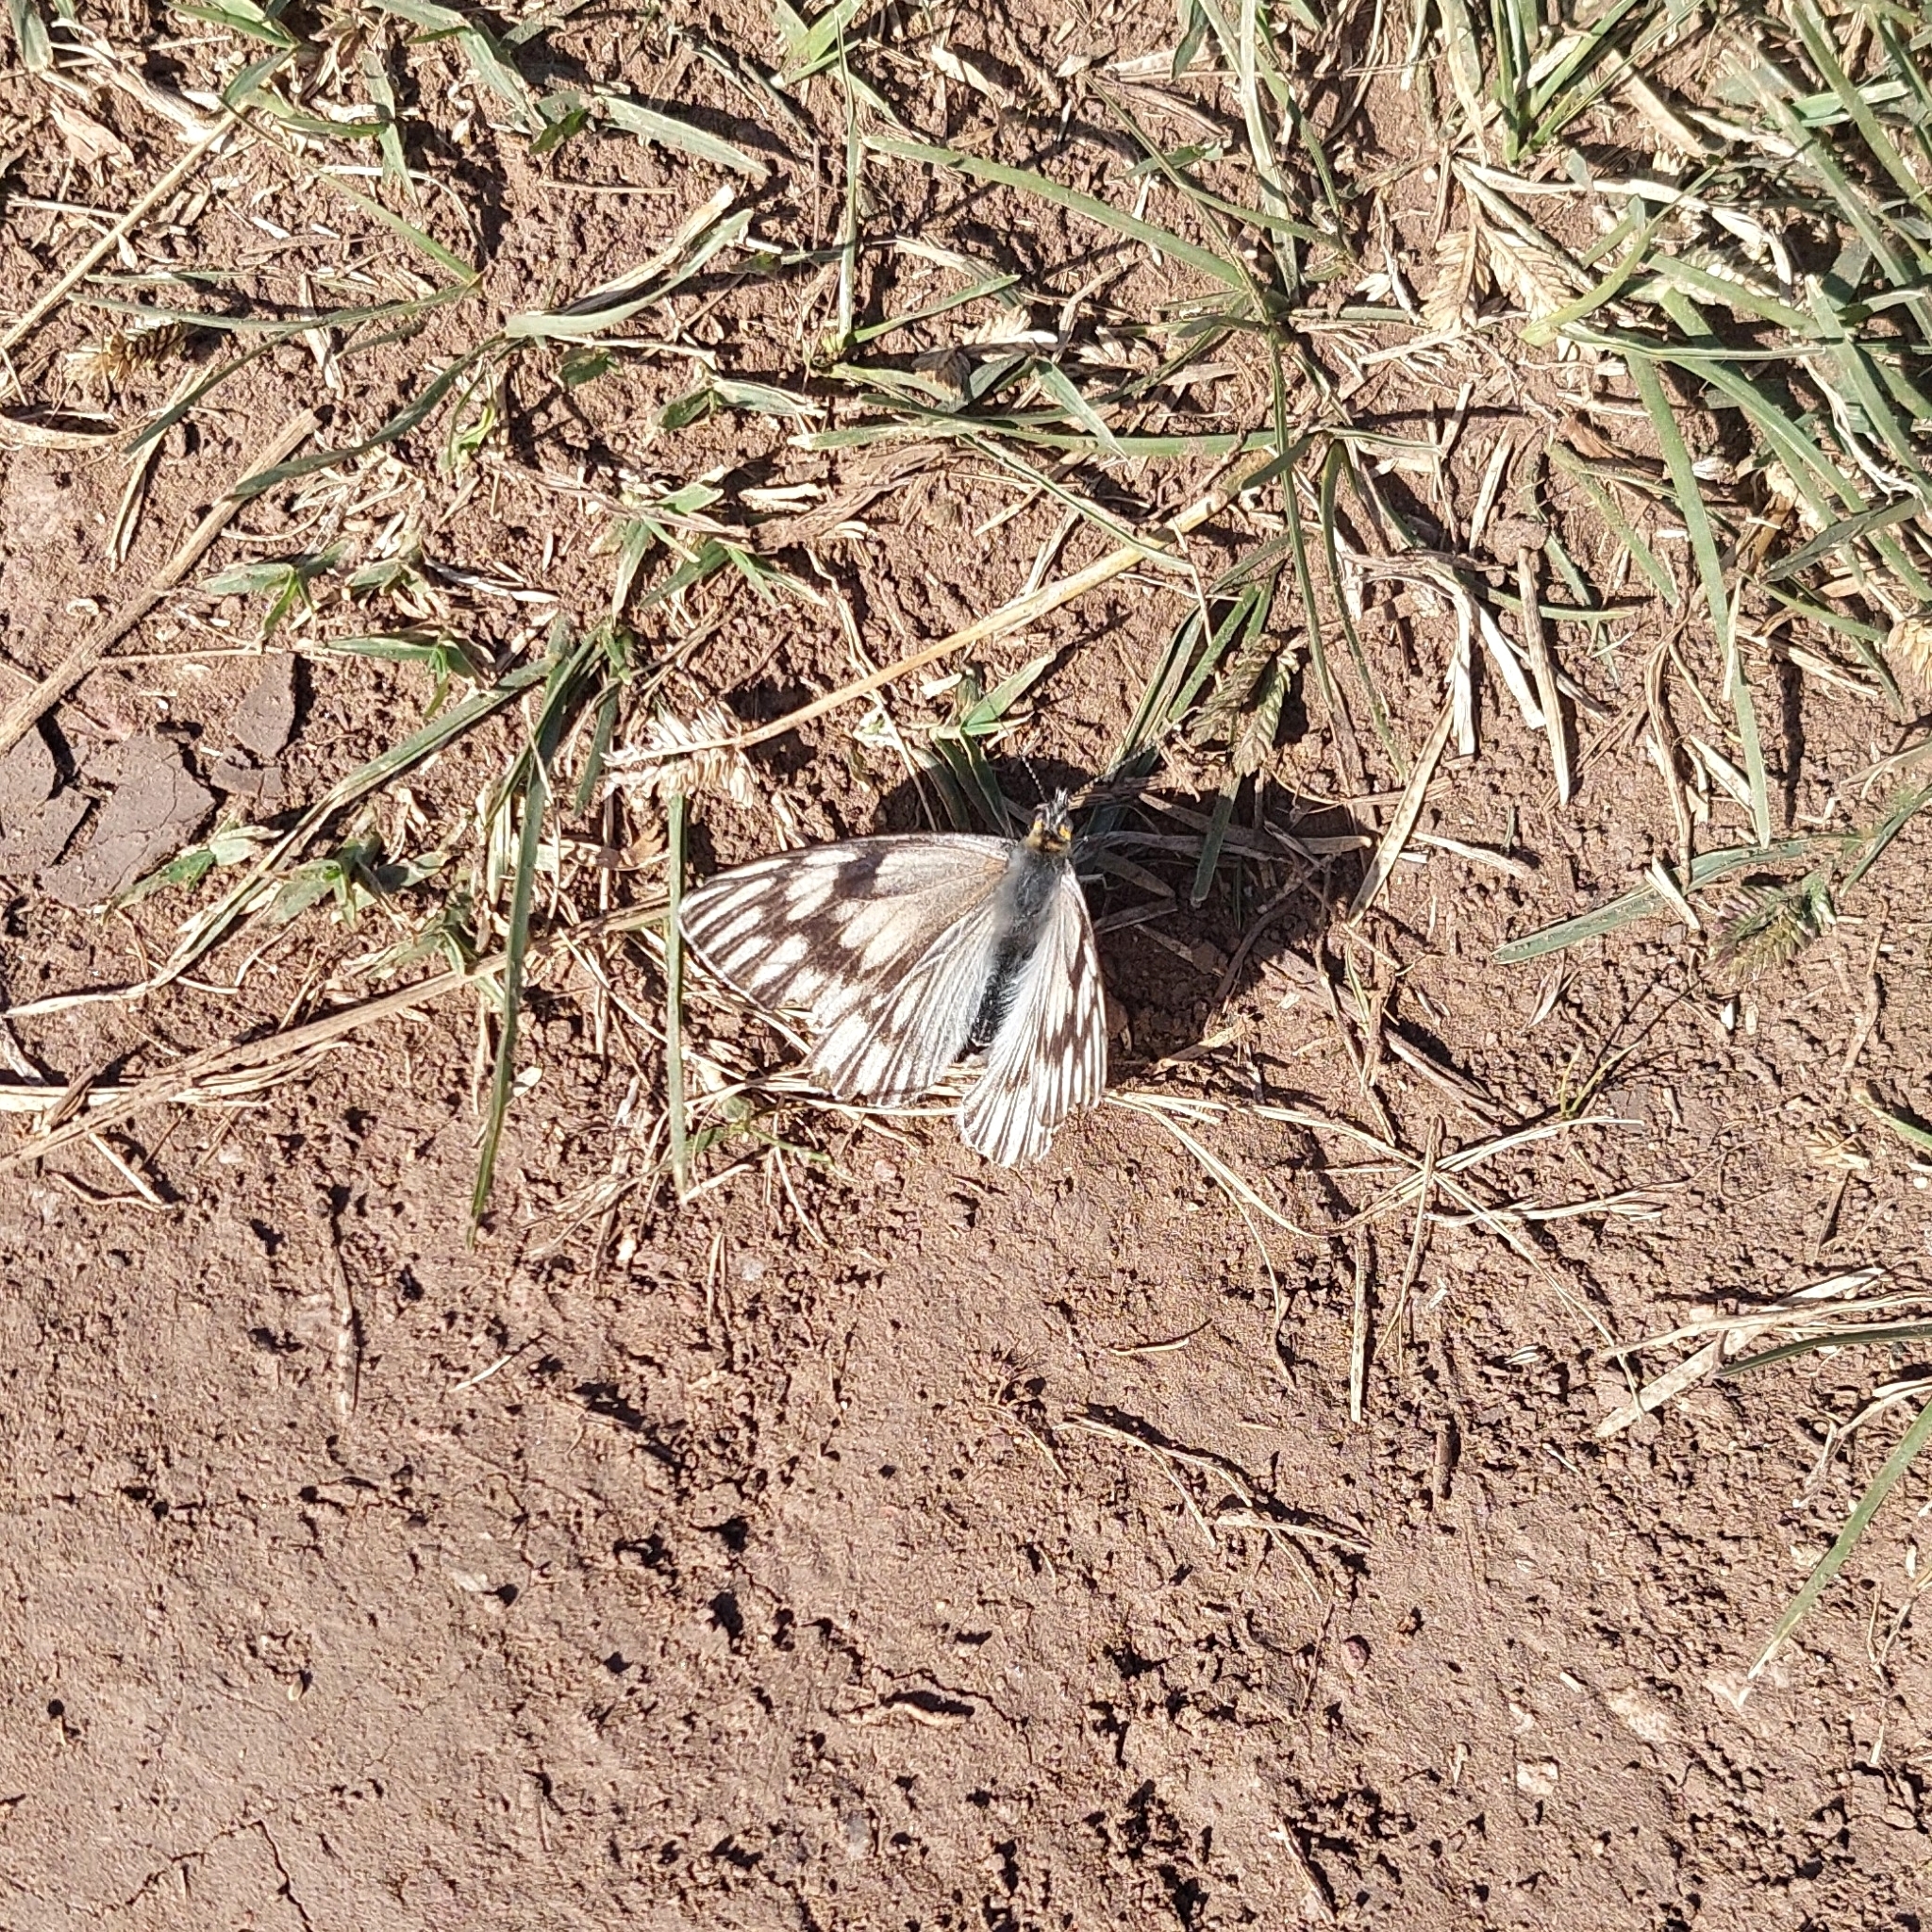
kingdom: Animalia
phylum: Arthropoda
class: Insecta
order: Lepidoptera
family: Pieridae
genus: Tatochila
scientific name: Tatochila mercedis
